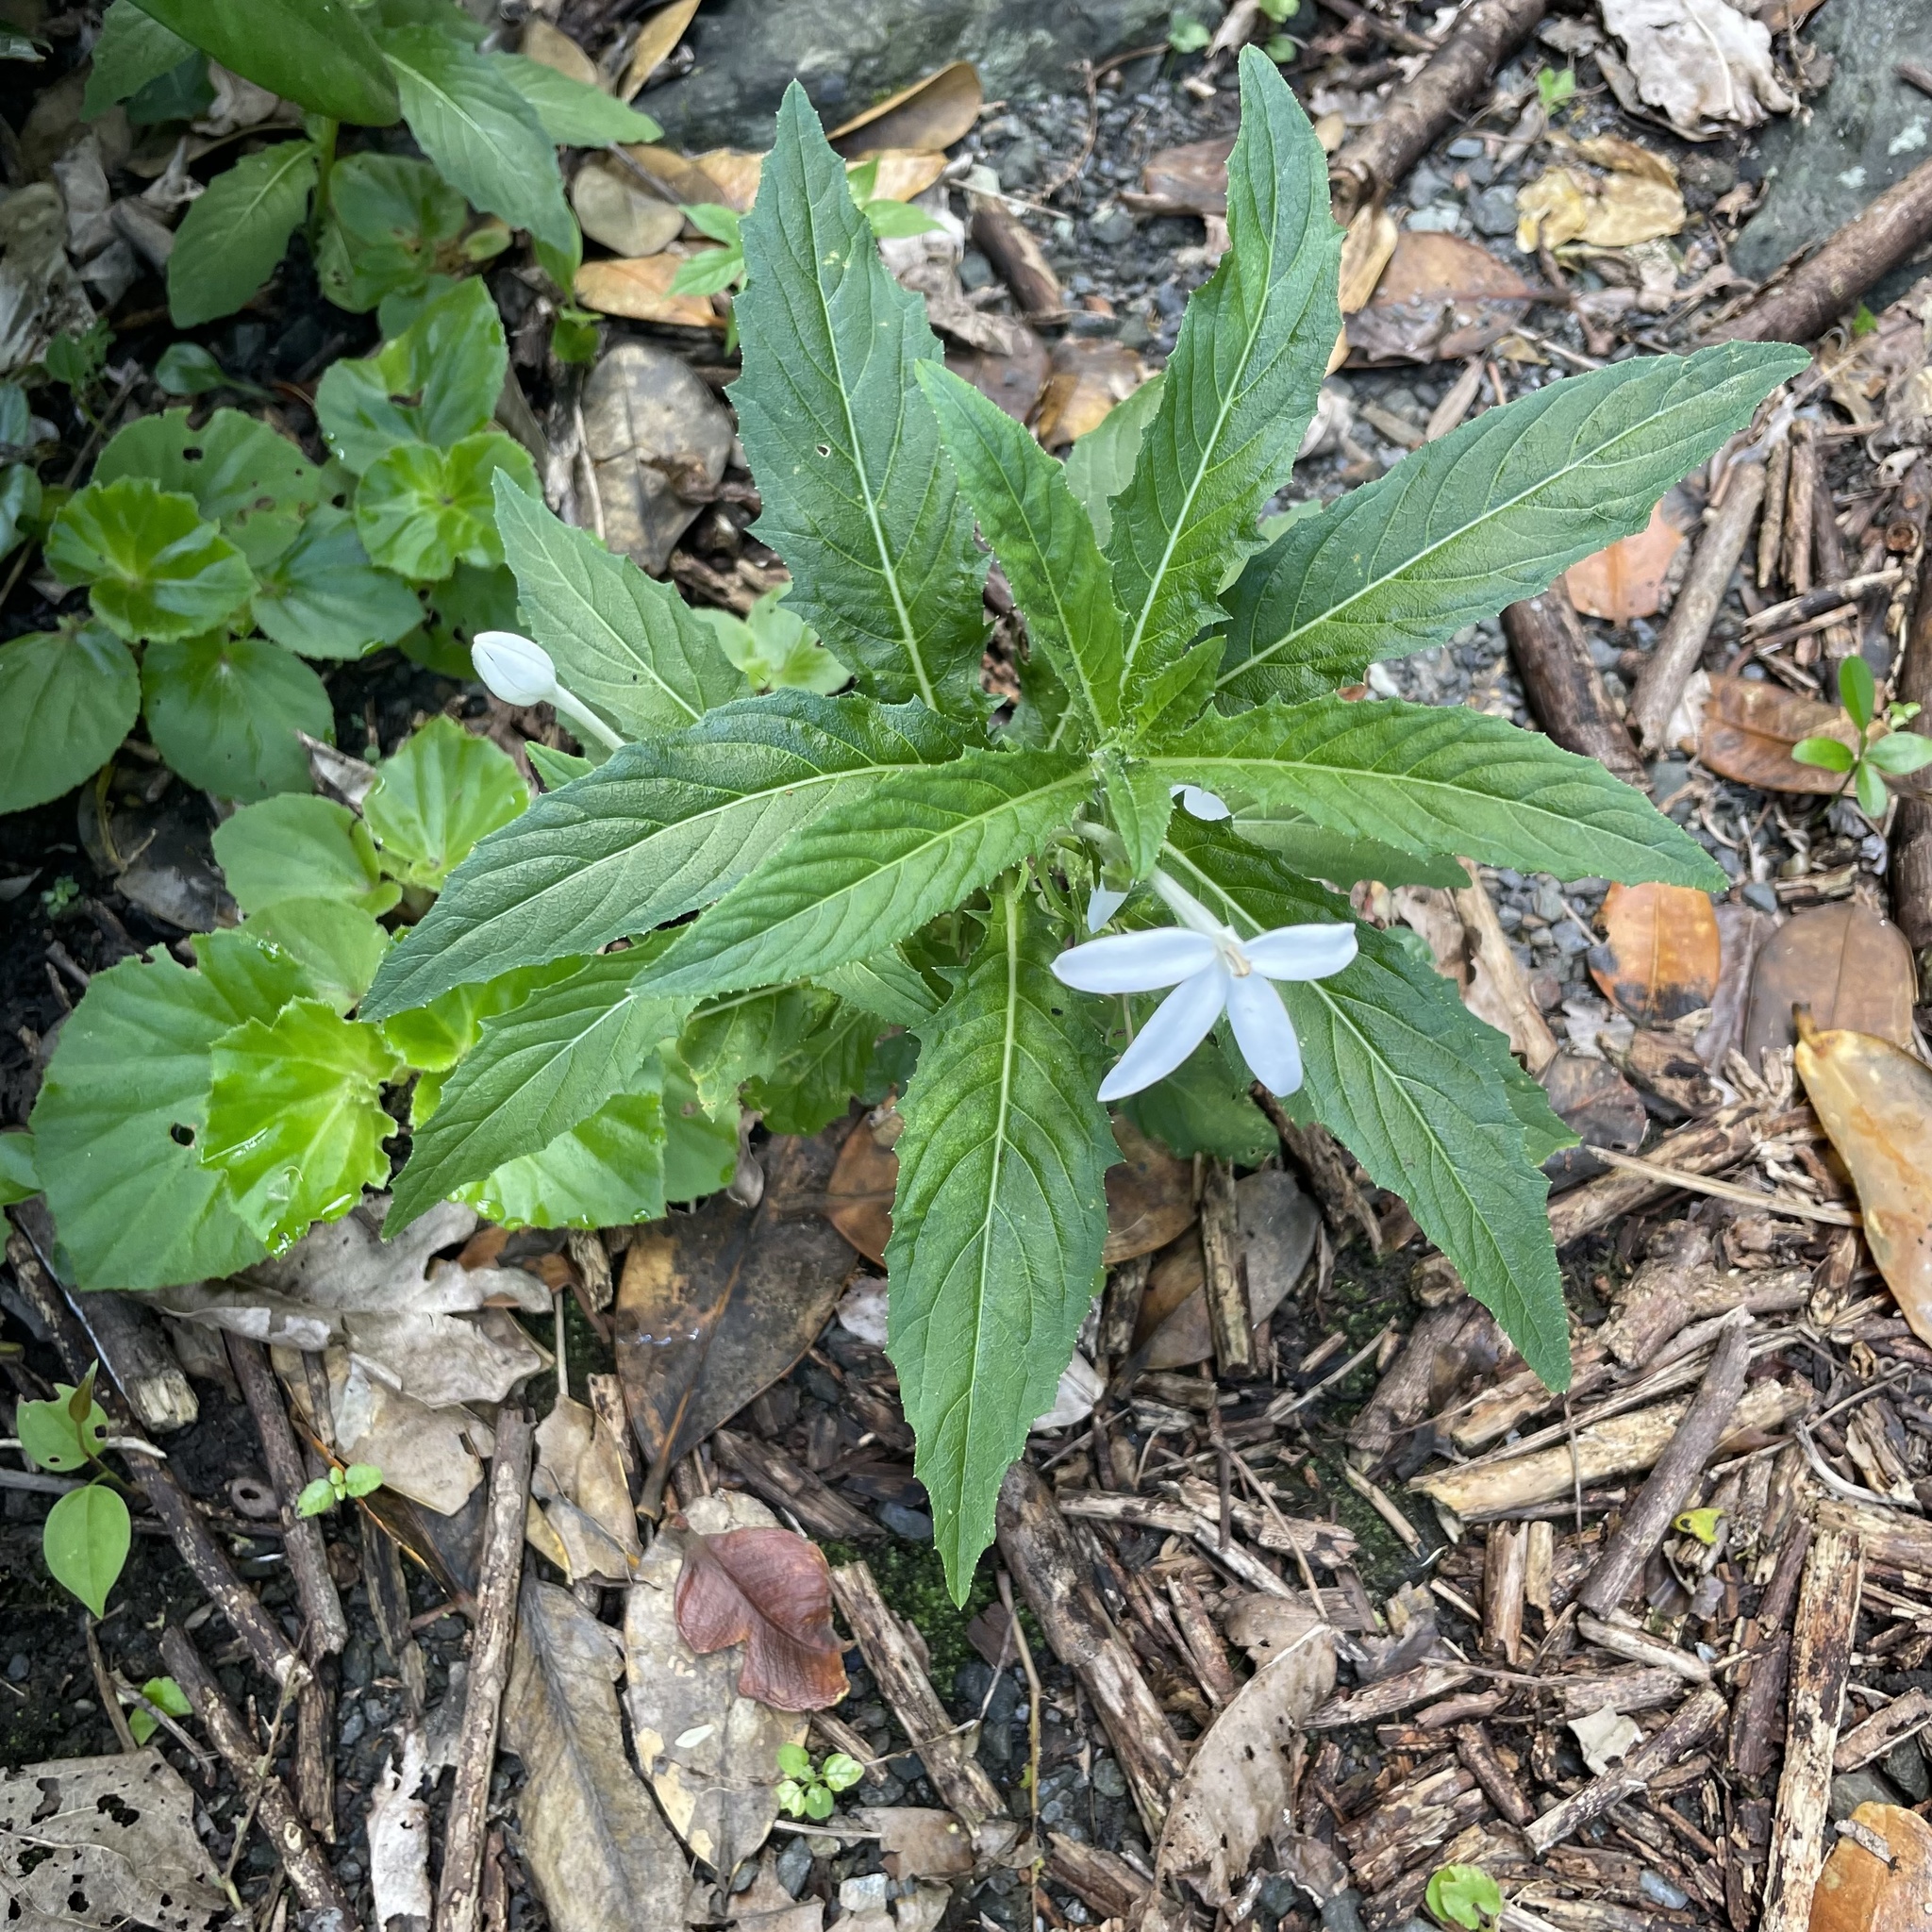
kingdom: Plantae
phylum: Tracheophyta
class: Magnoliopsida
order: Asterales
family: Campanulaceae
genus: Hippobroma
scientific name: Hippobroma longiflora
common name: Madamfate
